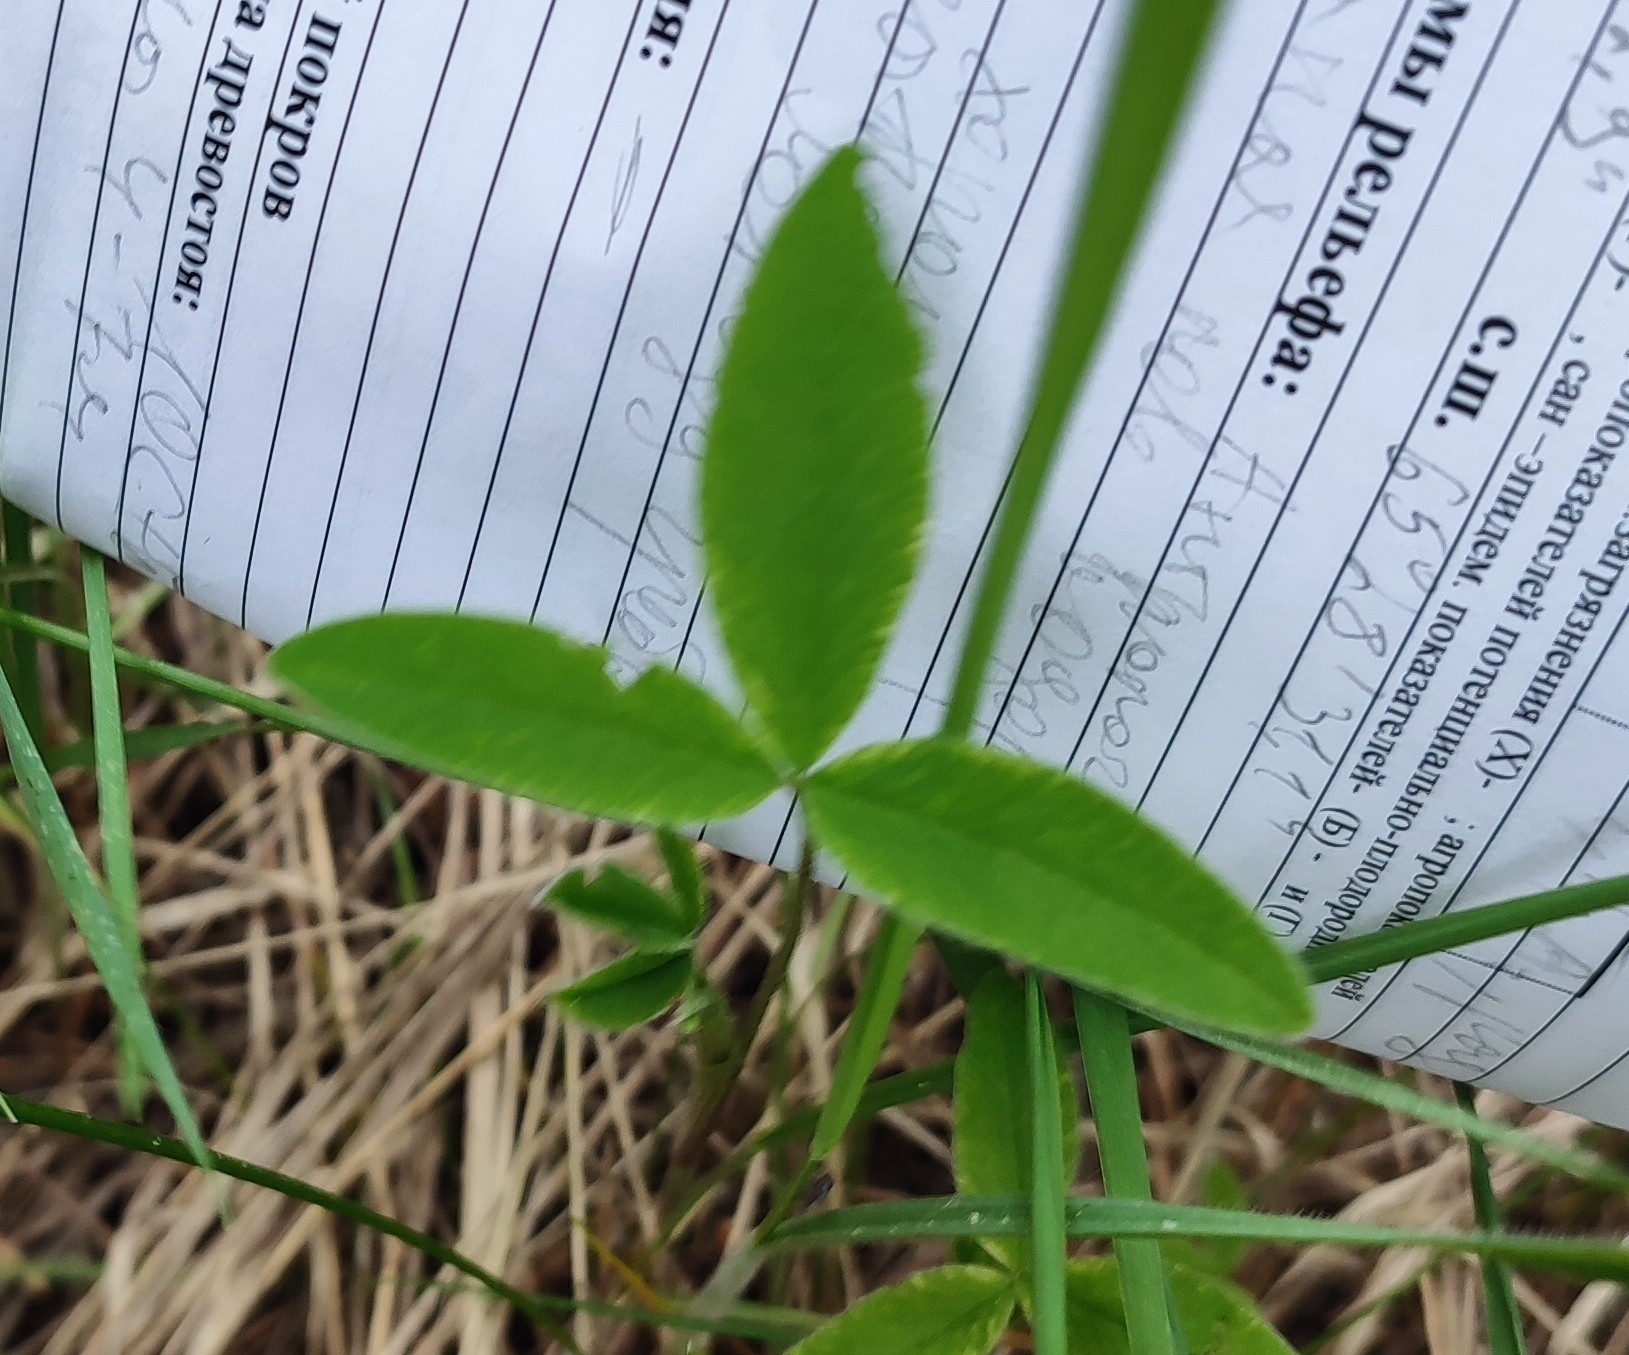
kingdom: Plantae
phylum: Tracheophyta
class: Magnoliopsida
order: Fabales
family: Fabaceae
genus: Trifolium
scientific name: Trifolium medium
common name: Zigzag clover
